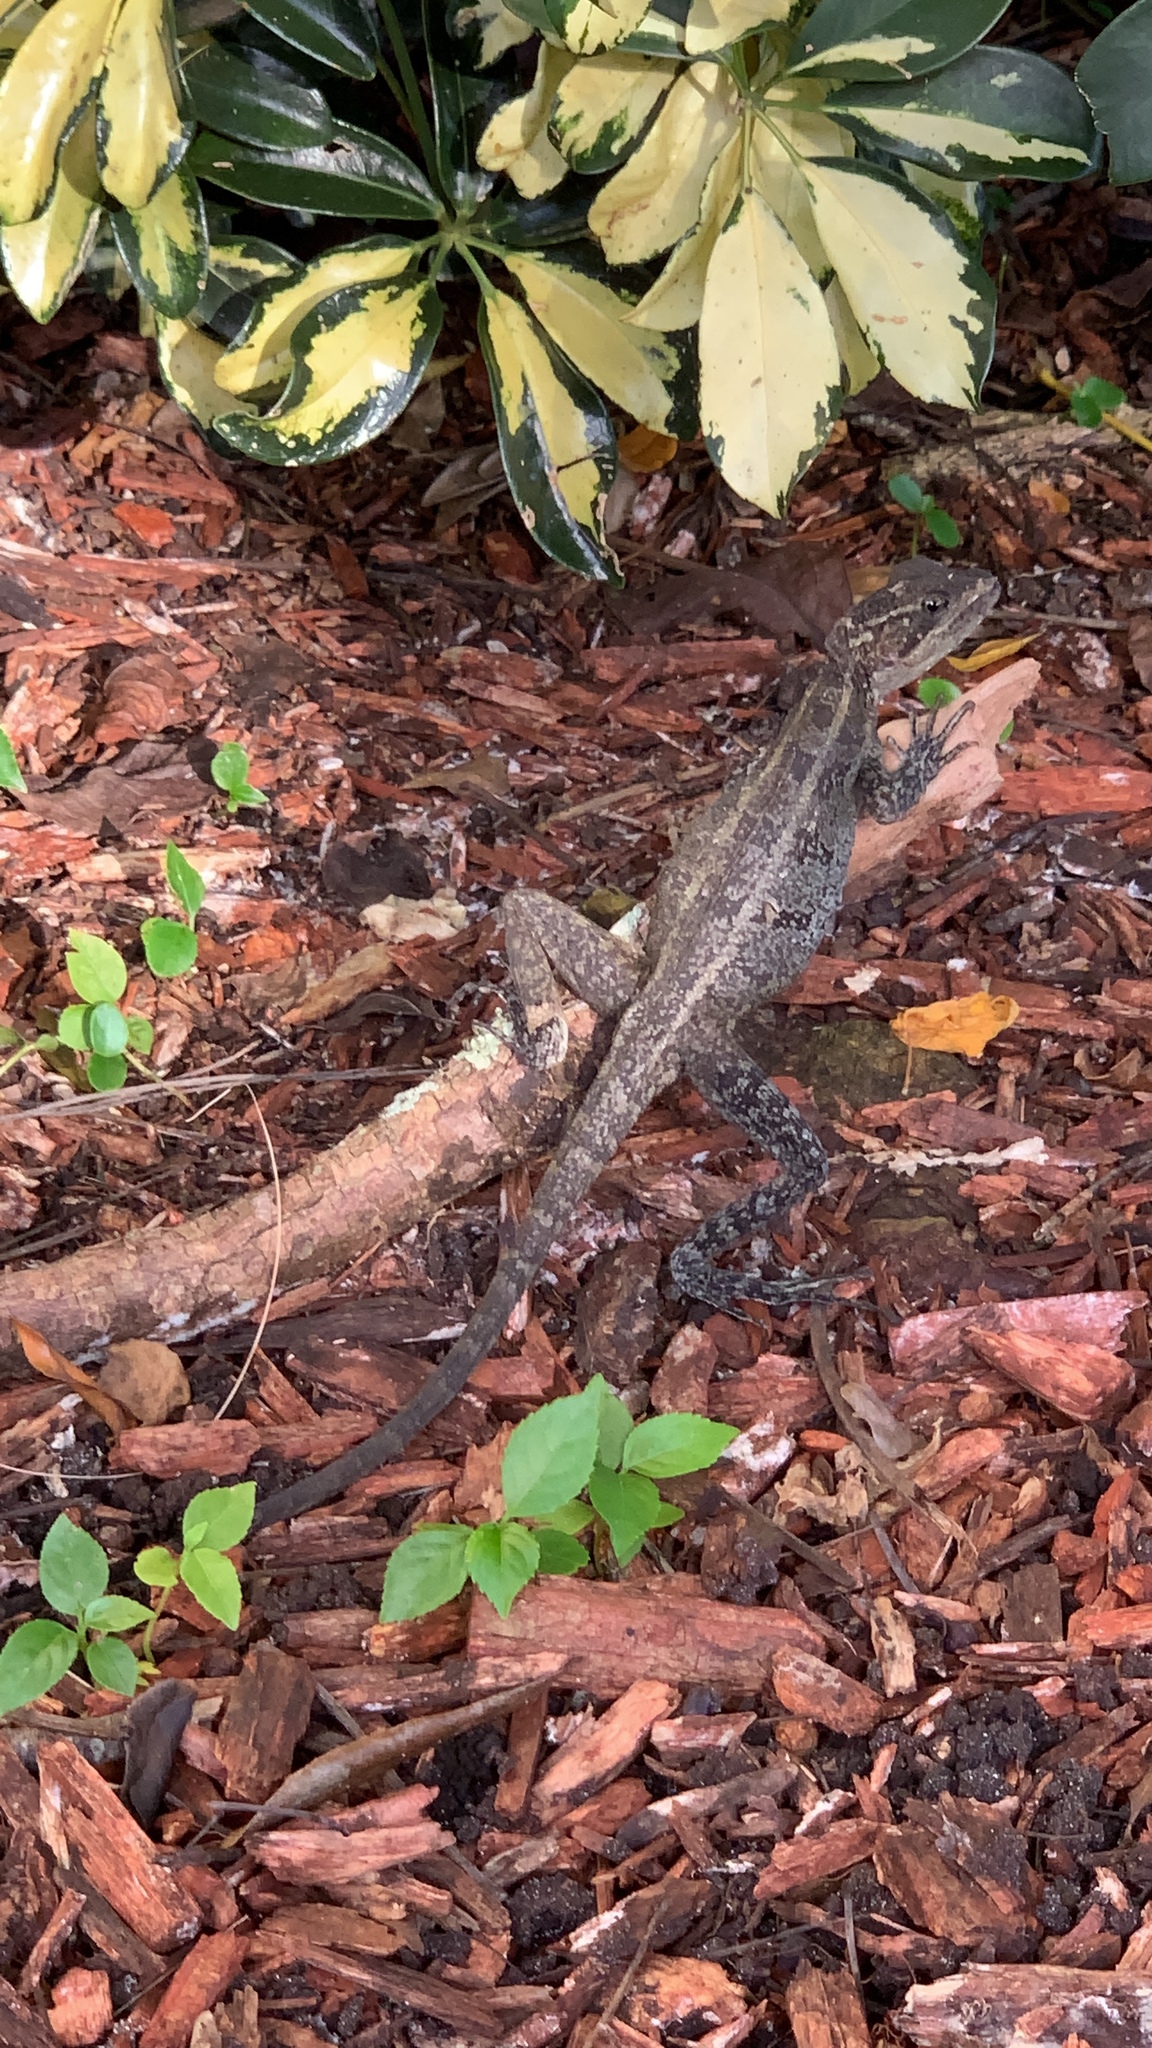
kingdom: Animalia
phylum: Chordata
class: Squamata
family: Corytophanidae
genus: Basiliscus
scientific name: Basiliscus vittatus
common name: Brown basilisk
